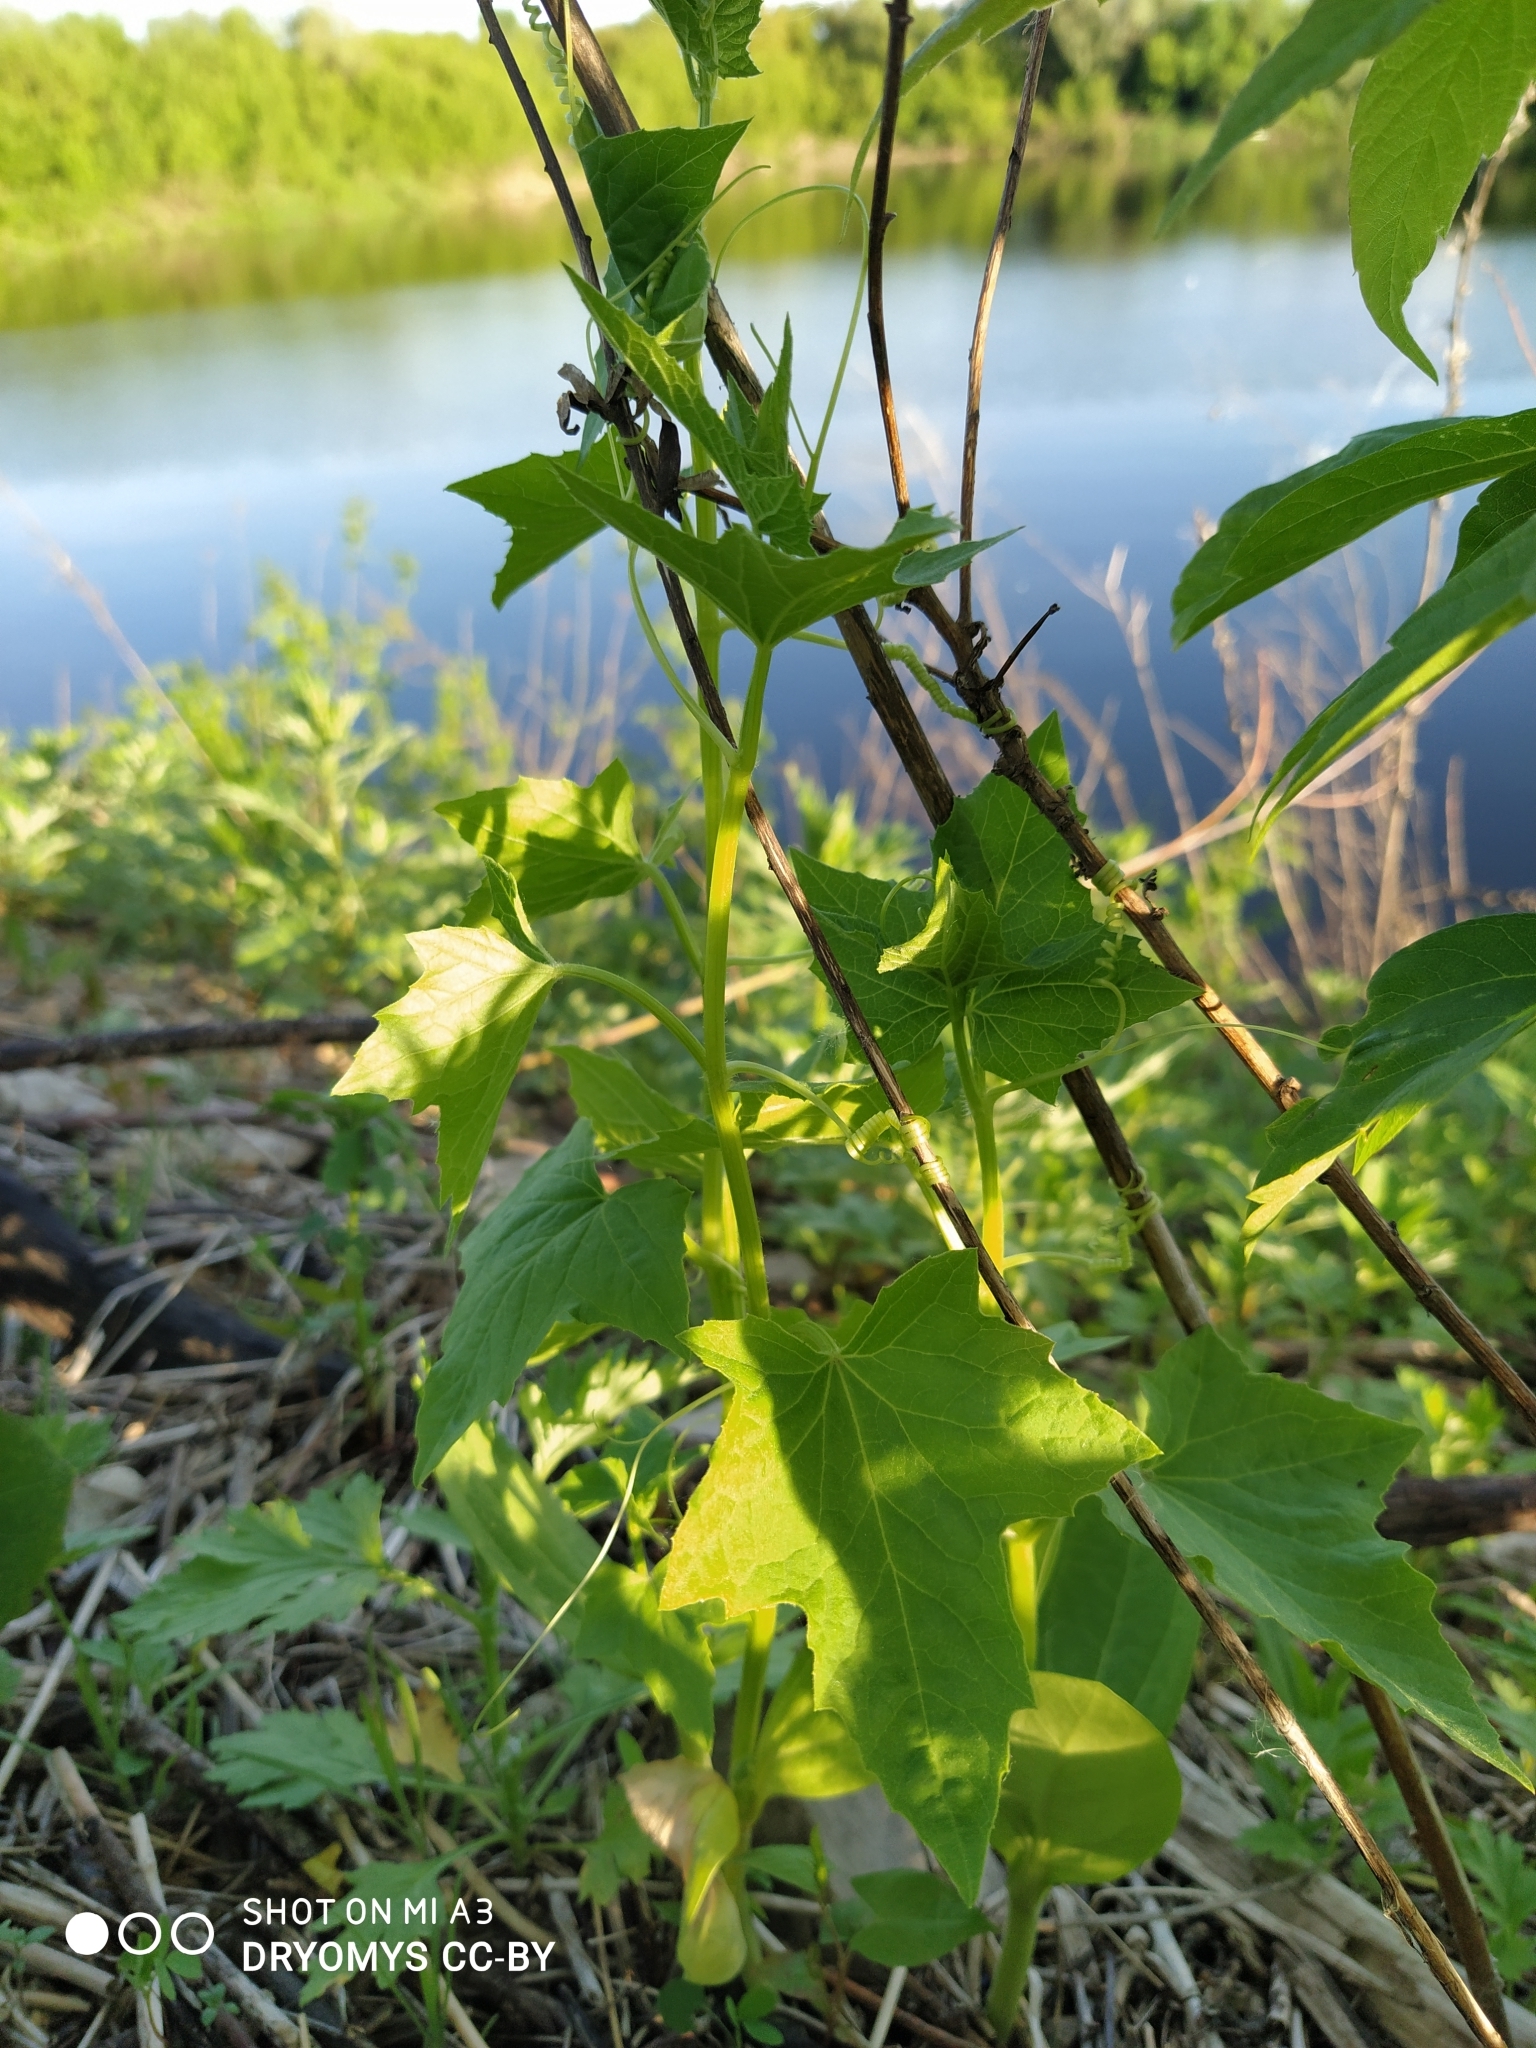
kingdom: Plantae
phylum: Tracheophyta
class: Magnoliopsida
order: Cucurbitales
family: Cucurbitaceae
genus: Echinocystis
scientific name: Echinocystis lobata
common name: Wild cucumber
